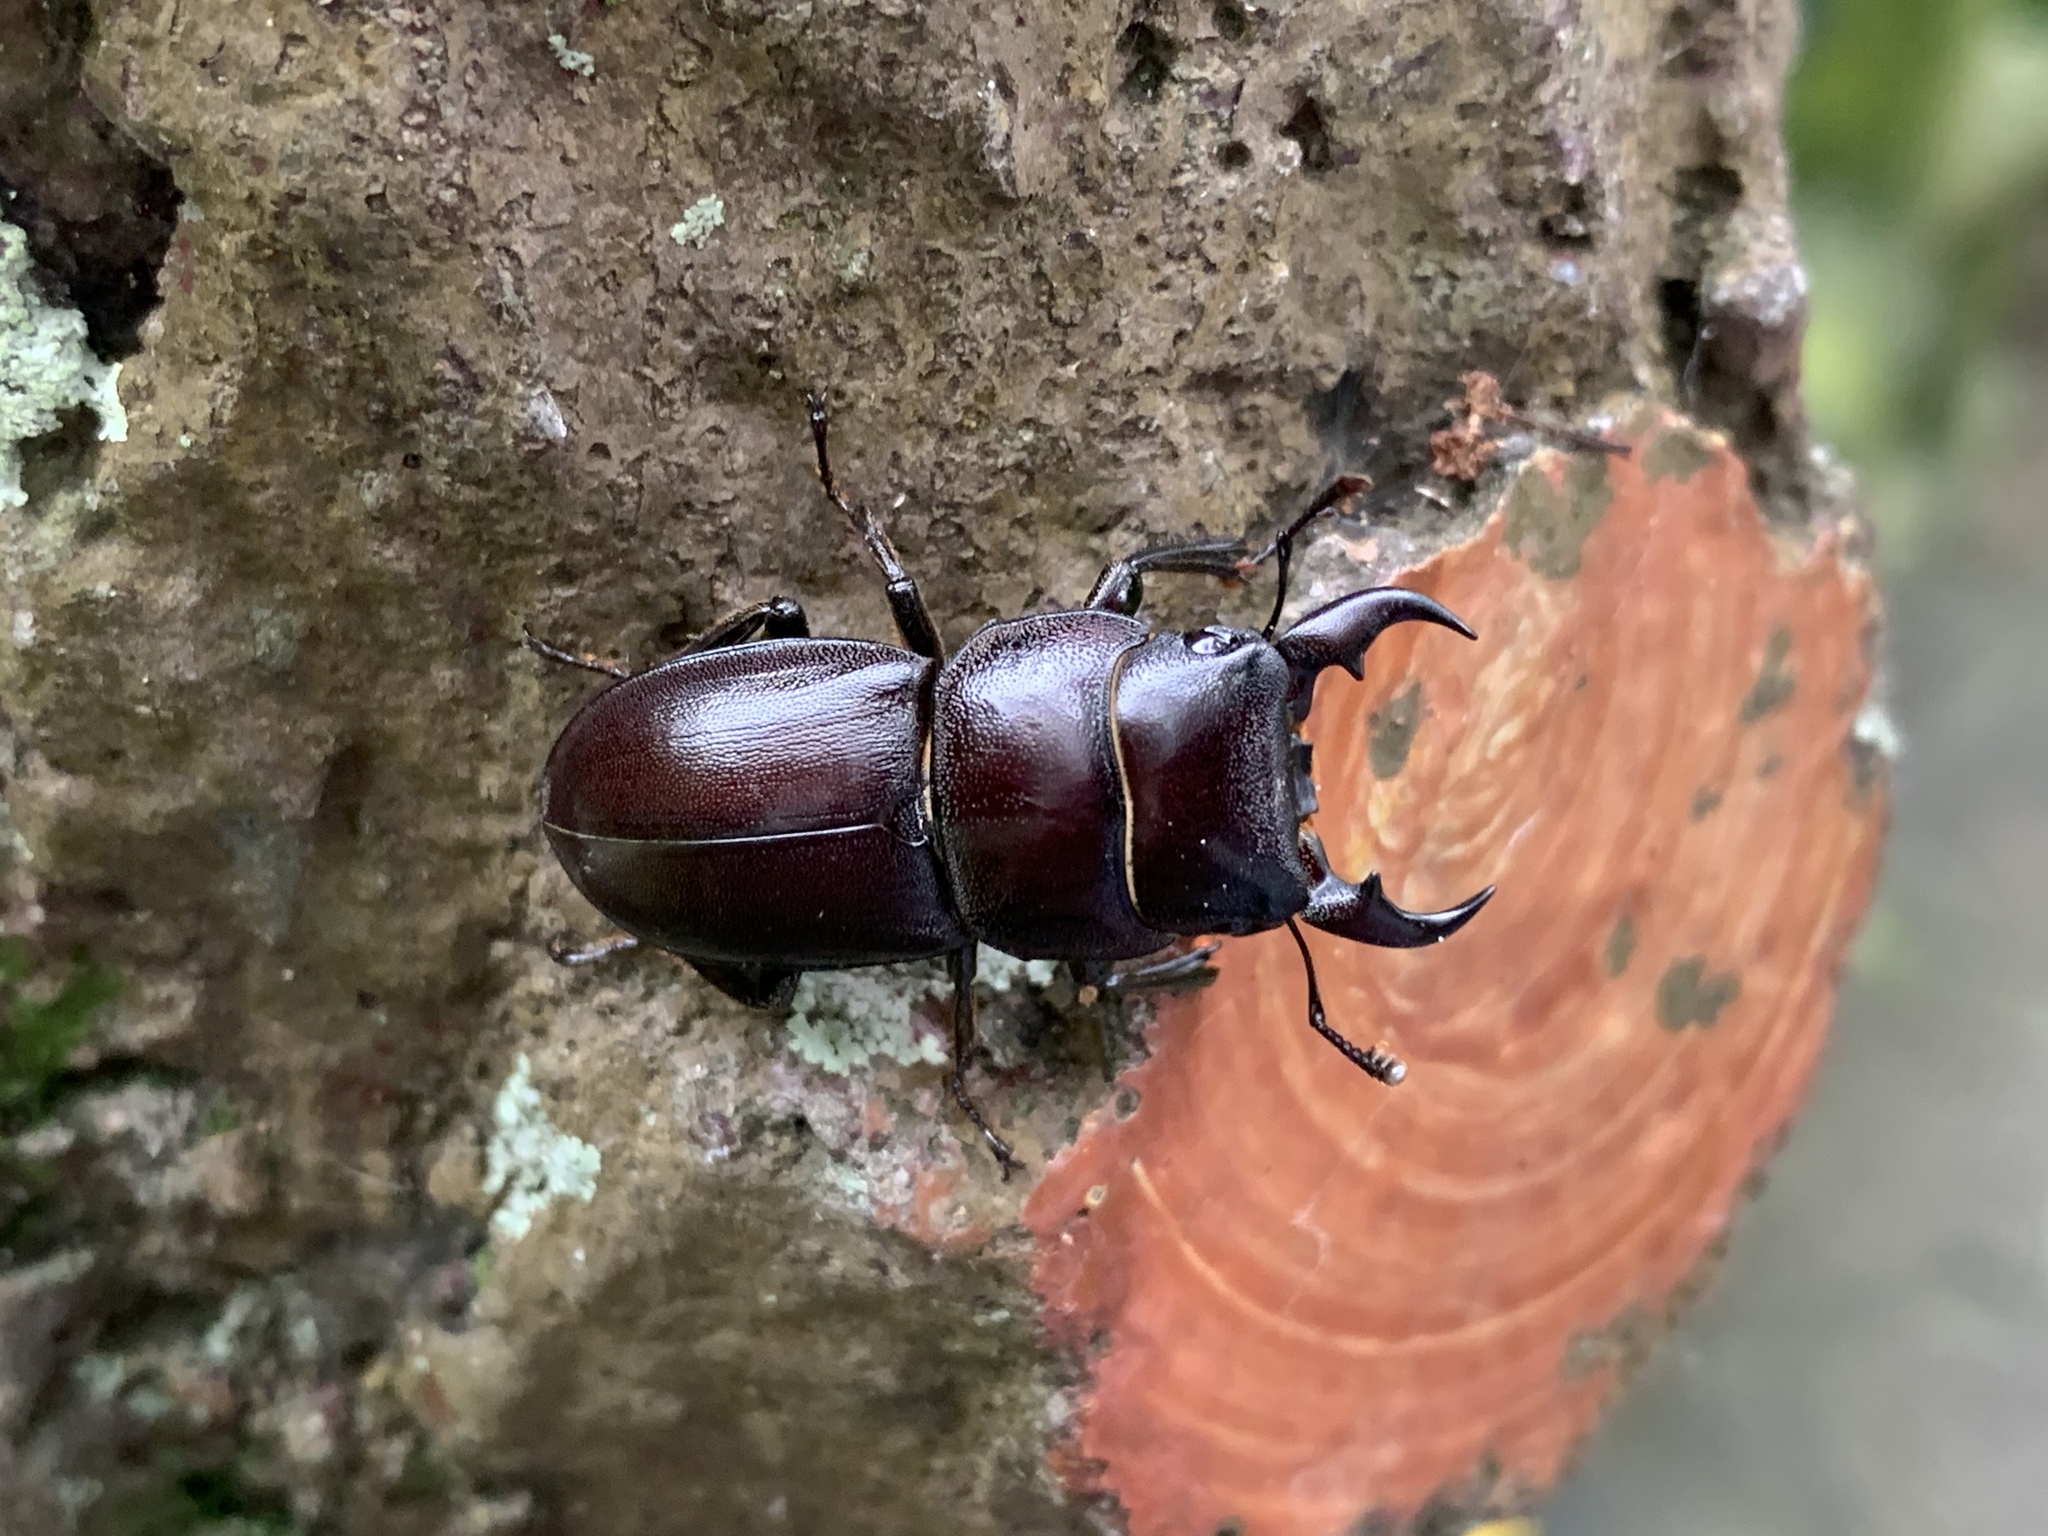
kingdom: Animalia
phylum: Arthropoda
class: Insecta
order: Coleoptera
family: Lucanidae
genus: Serrognathus
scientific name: Serrognathus kyanrauensis
